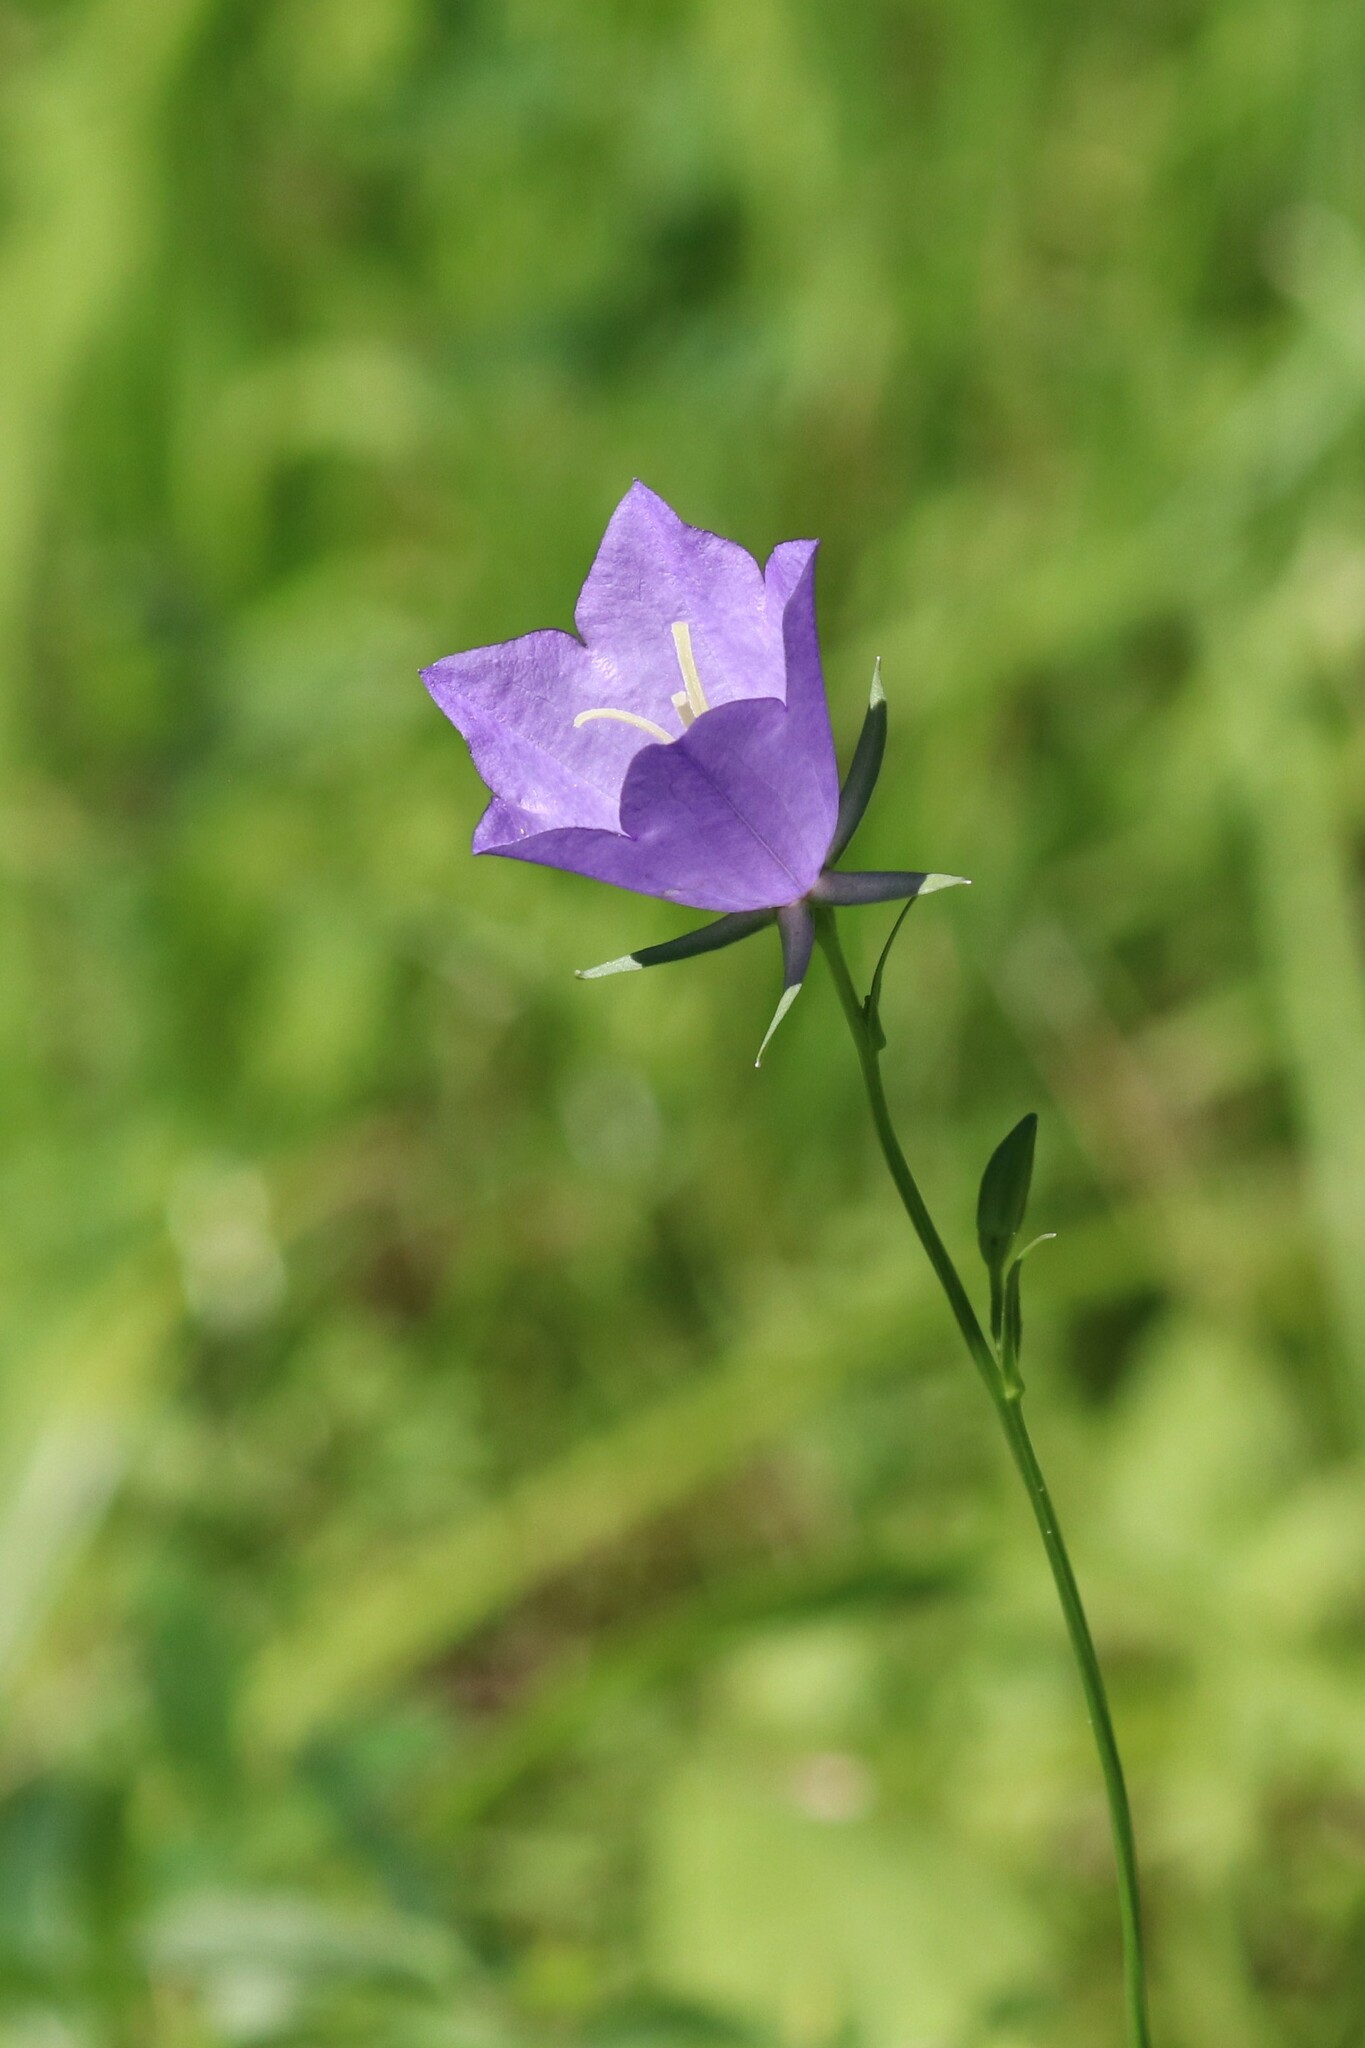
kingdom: Plantae
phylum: Tracheophyta
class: Magnoliopsida
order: Asterales
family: Campanulaceae
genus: Campanula
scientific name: Campanula persicifolia
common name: Peach-leaved bellflower
